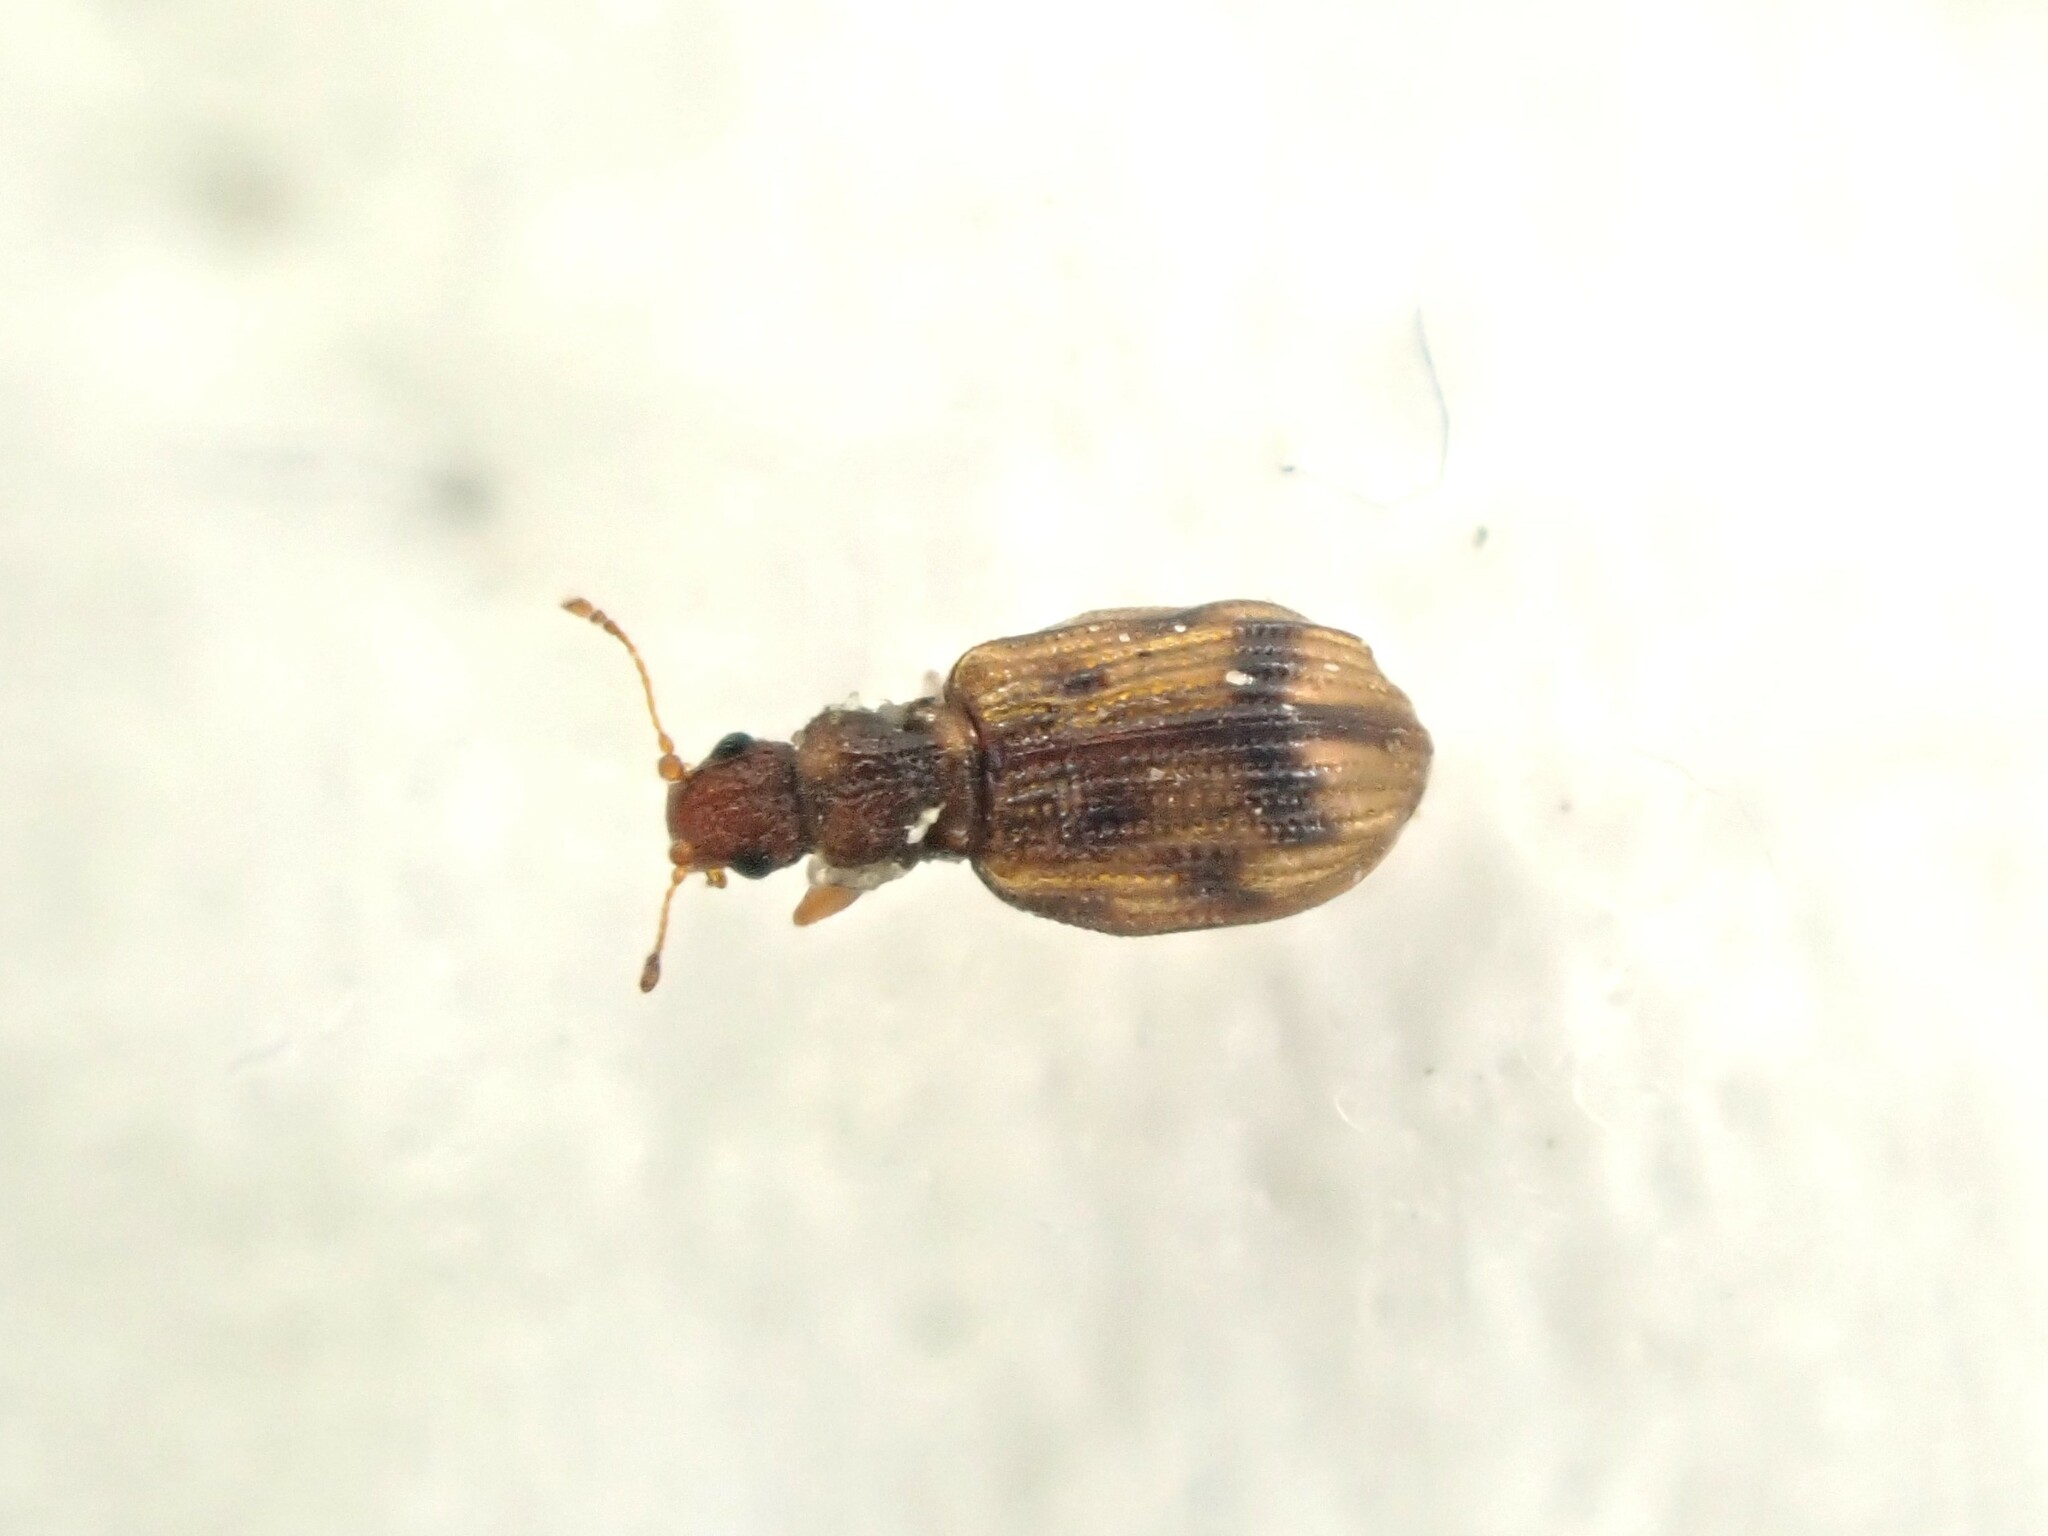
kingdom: Animalia
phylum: Arthropoda
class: Insecta
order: Coleoptera
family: Latridiidae
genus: Cartodere
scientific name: Cartodere bifasciata
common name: Plaster beetle
